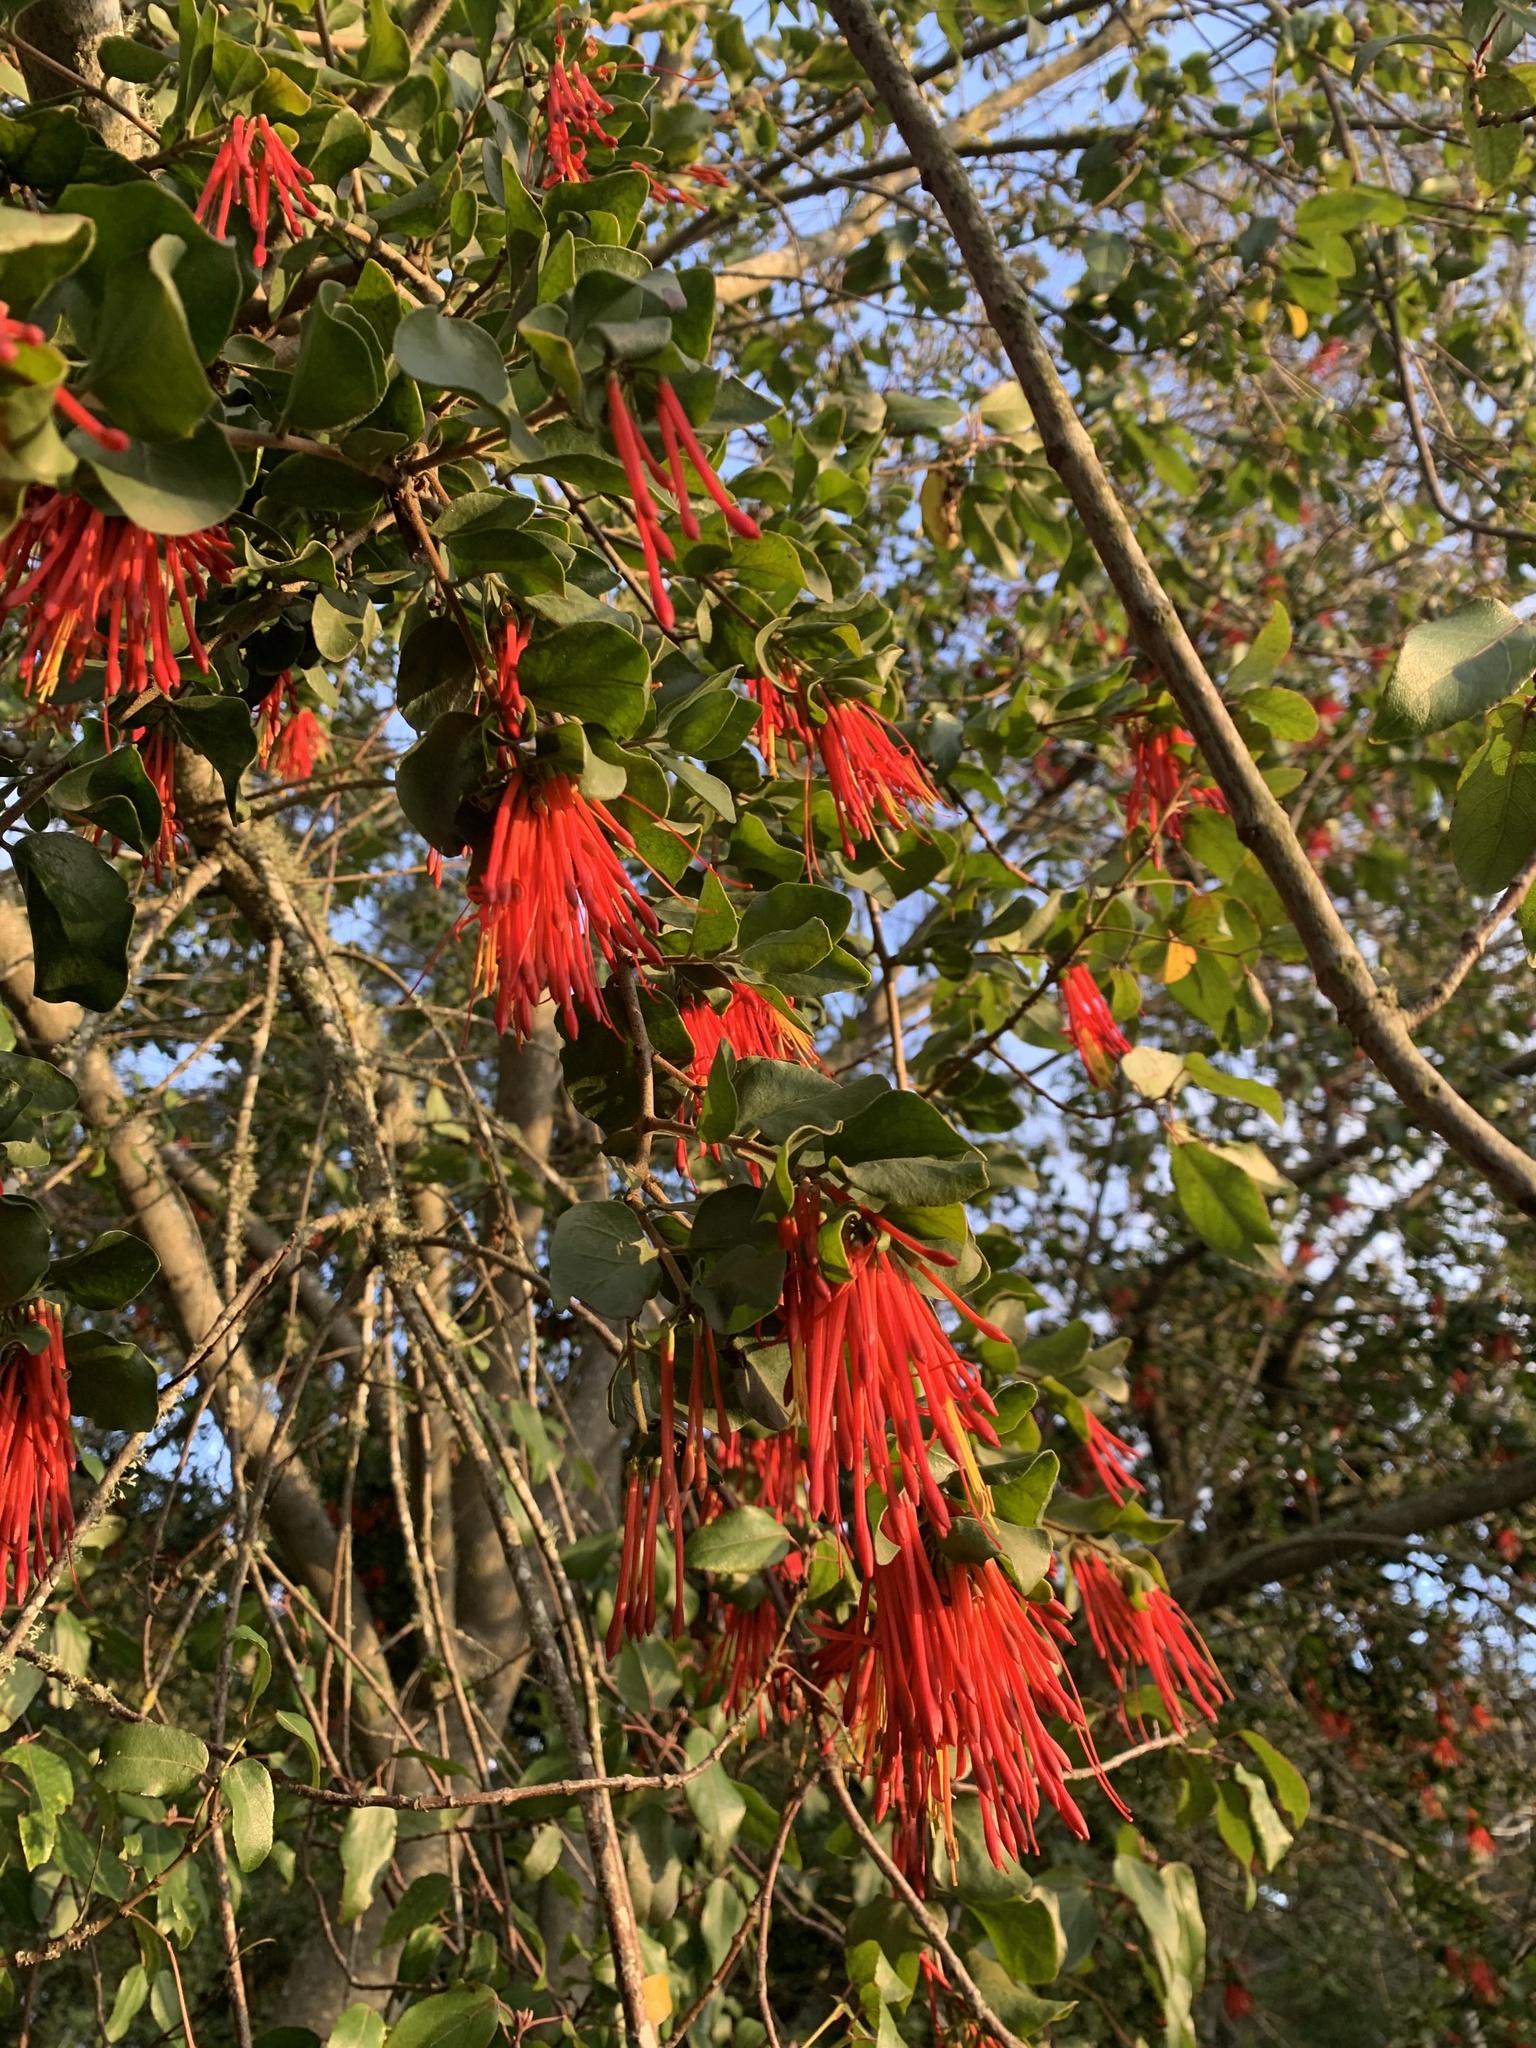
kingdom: Plantae
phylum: Tracheophyta
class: Magnoliopsida
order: Santalales
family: Loranthaceae
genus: Tristerix
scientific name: Tristerix corymbosus
